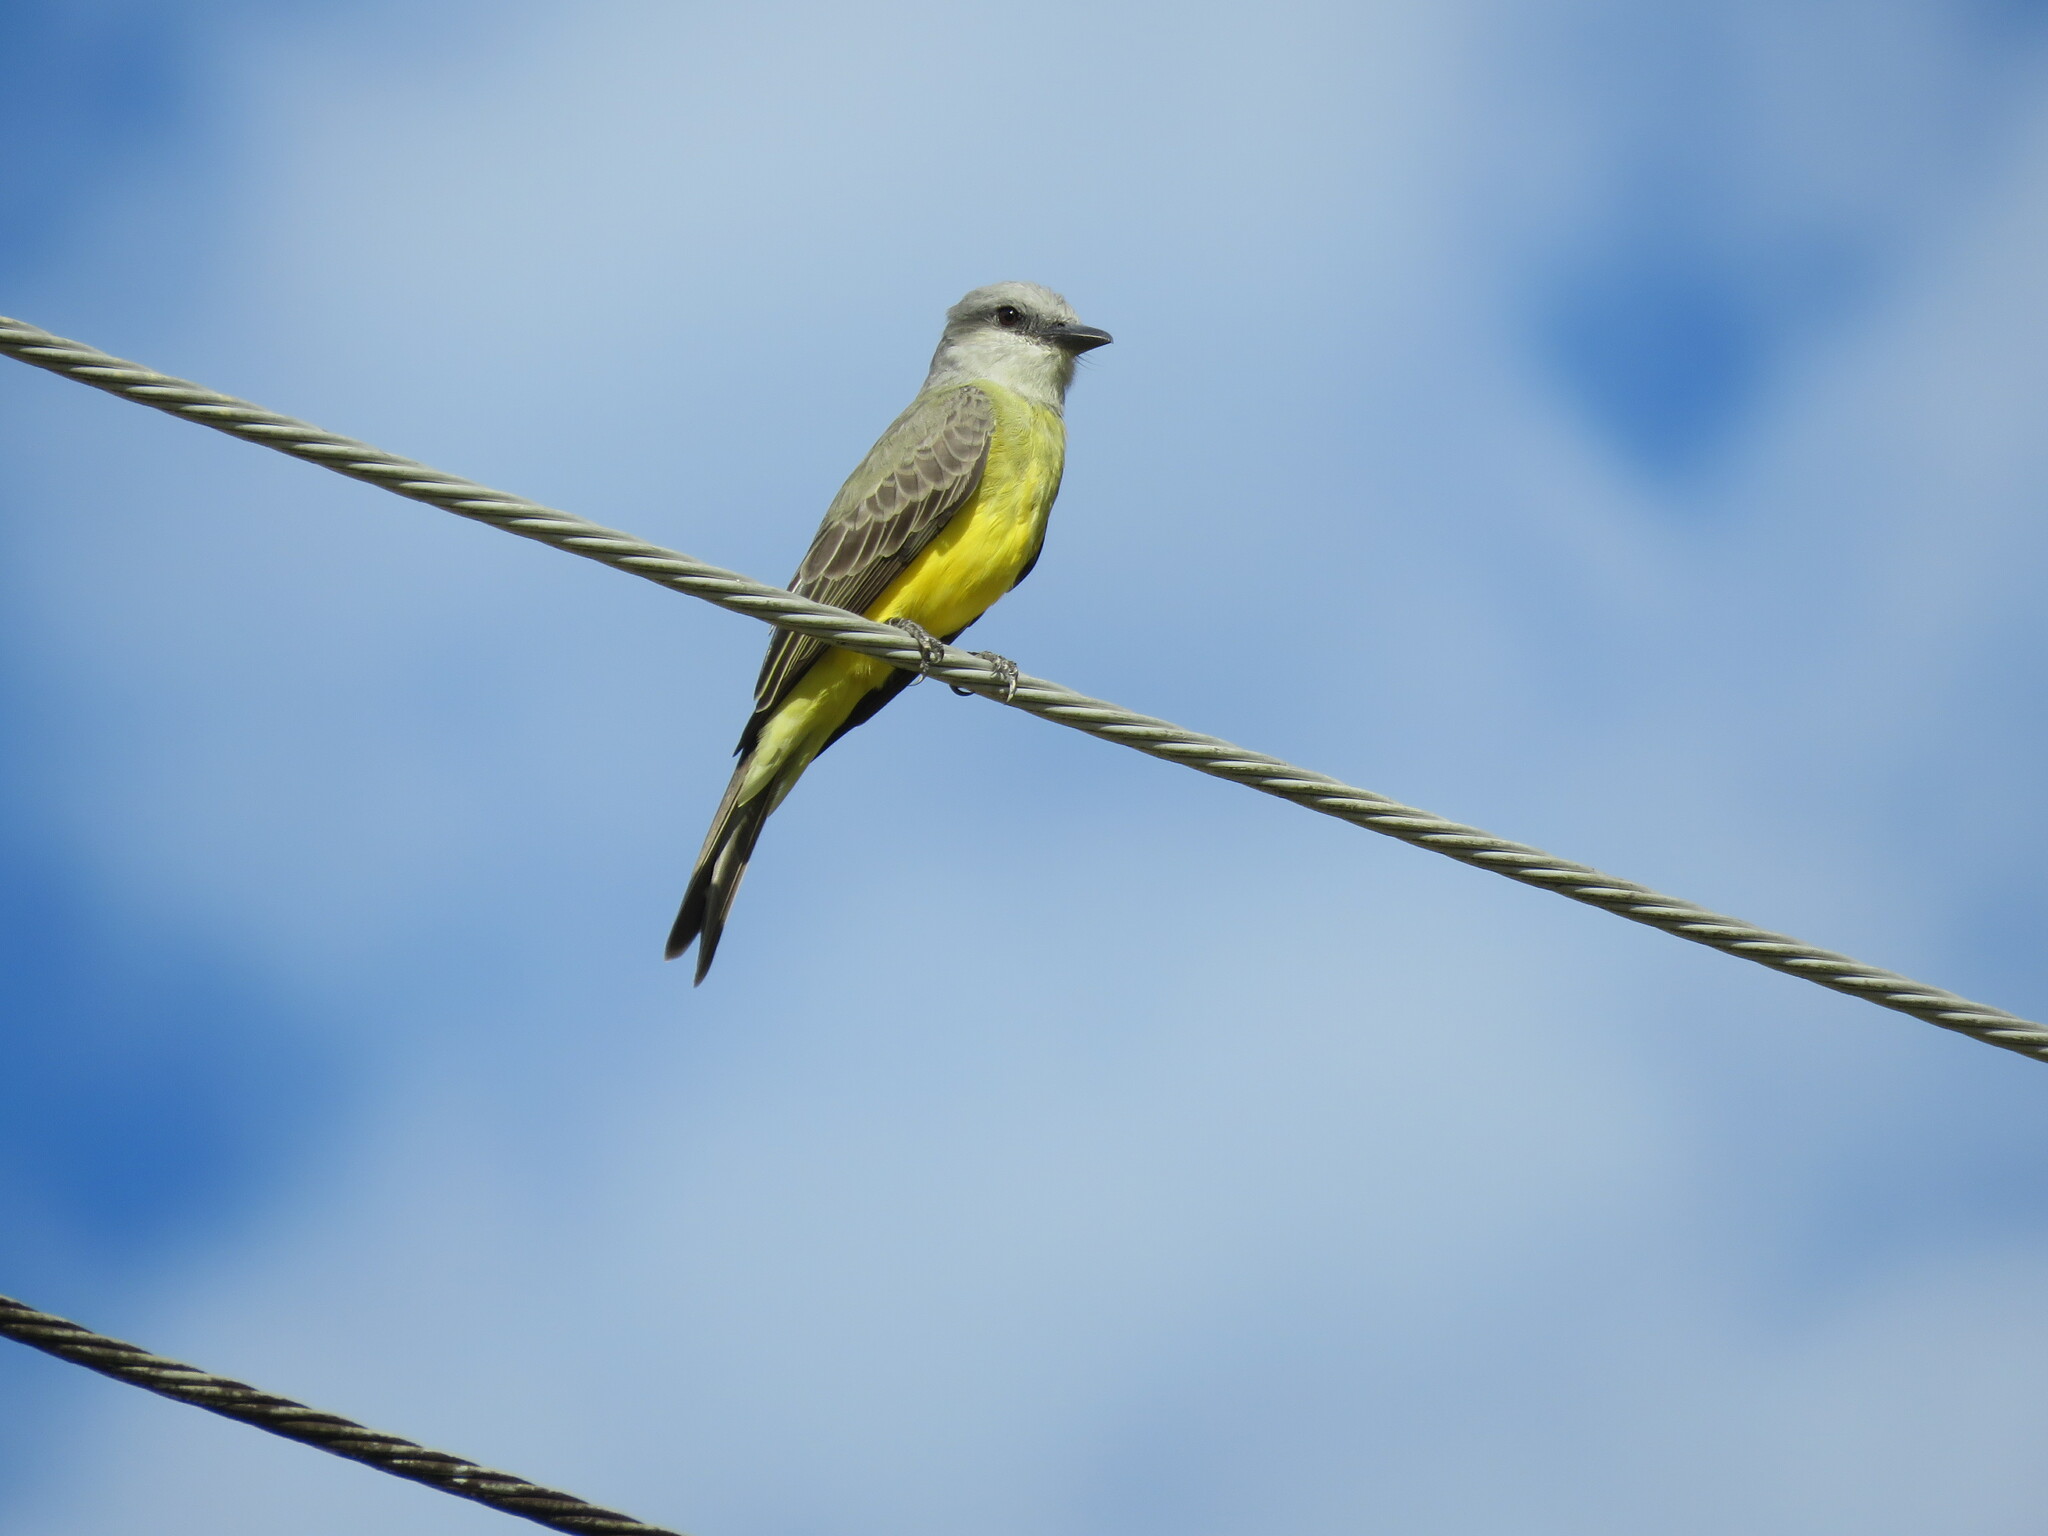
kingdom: Animalia
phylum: Chordata
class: Aves
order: Passeriformes
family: Tyrannidae
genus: Tyrannus
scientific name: Tyrannus melancholicus
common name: Tropical kingbird
